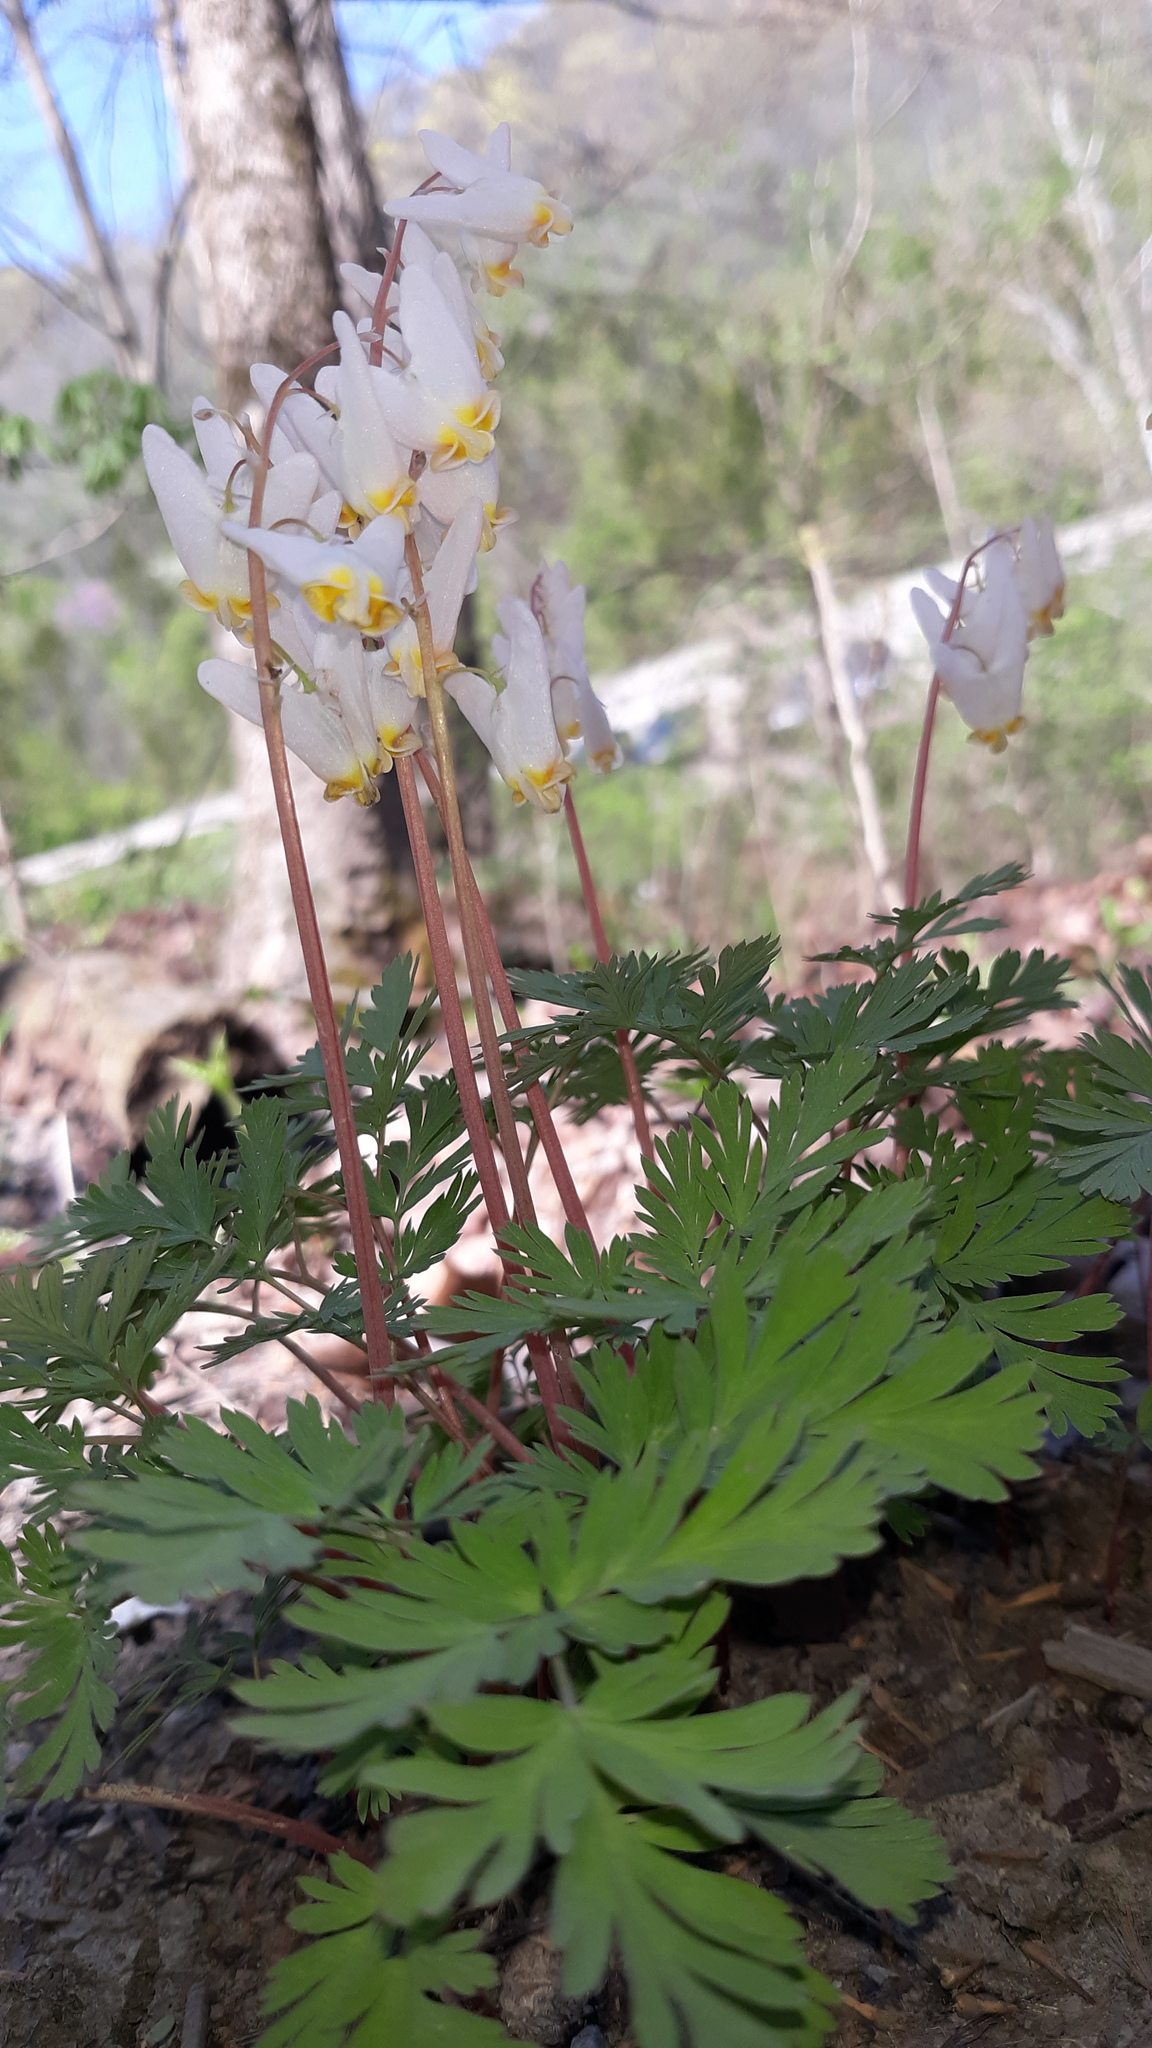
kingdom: Plantae
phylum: Tracheophyta
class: Magnoliopsida
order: Ranunculales
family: Papaveraceae
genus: Dicentra
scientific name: Dicentra cucullaria
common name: Dutchman's breeches
